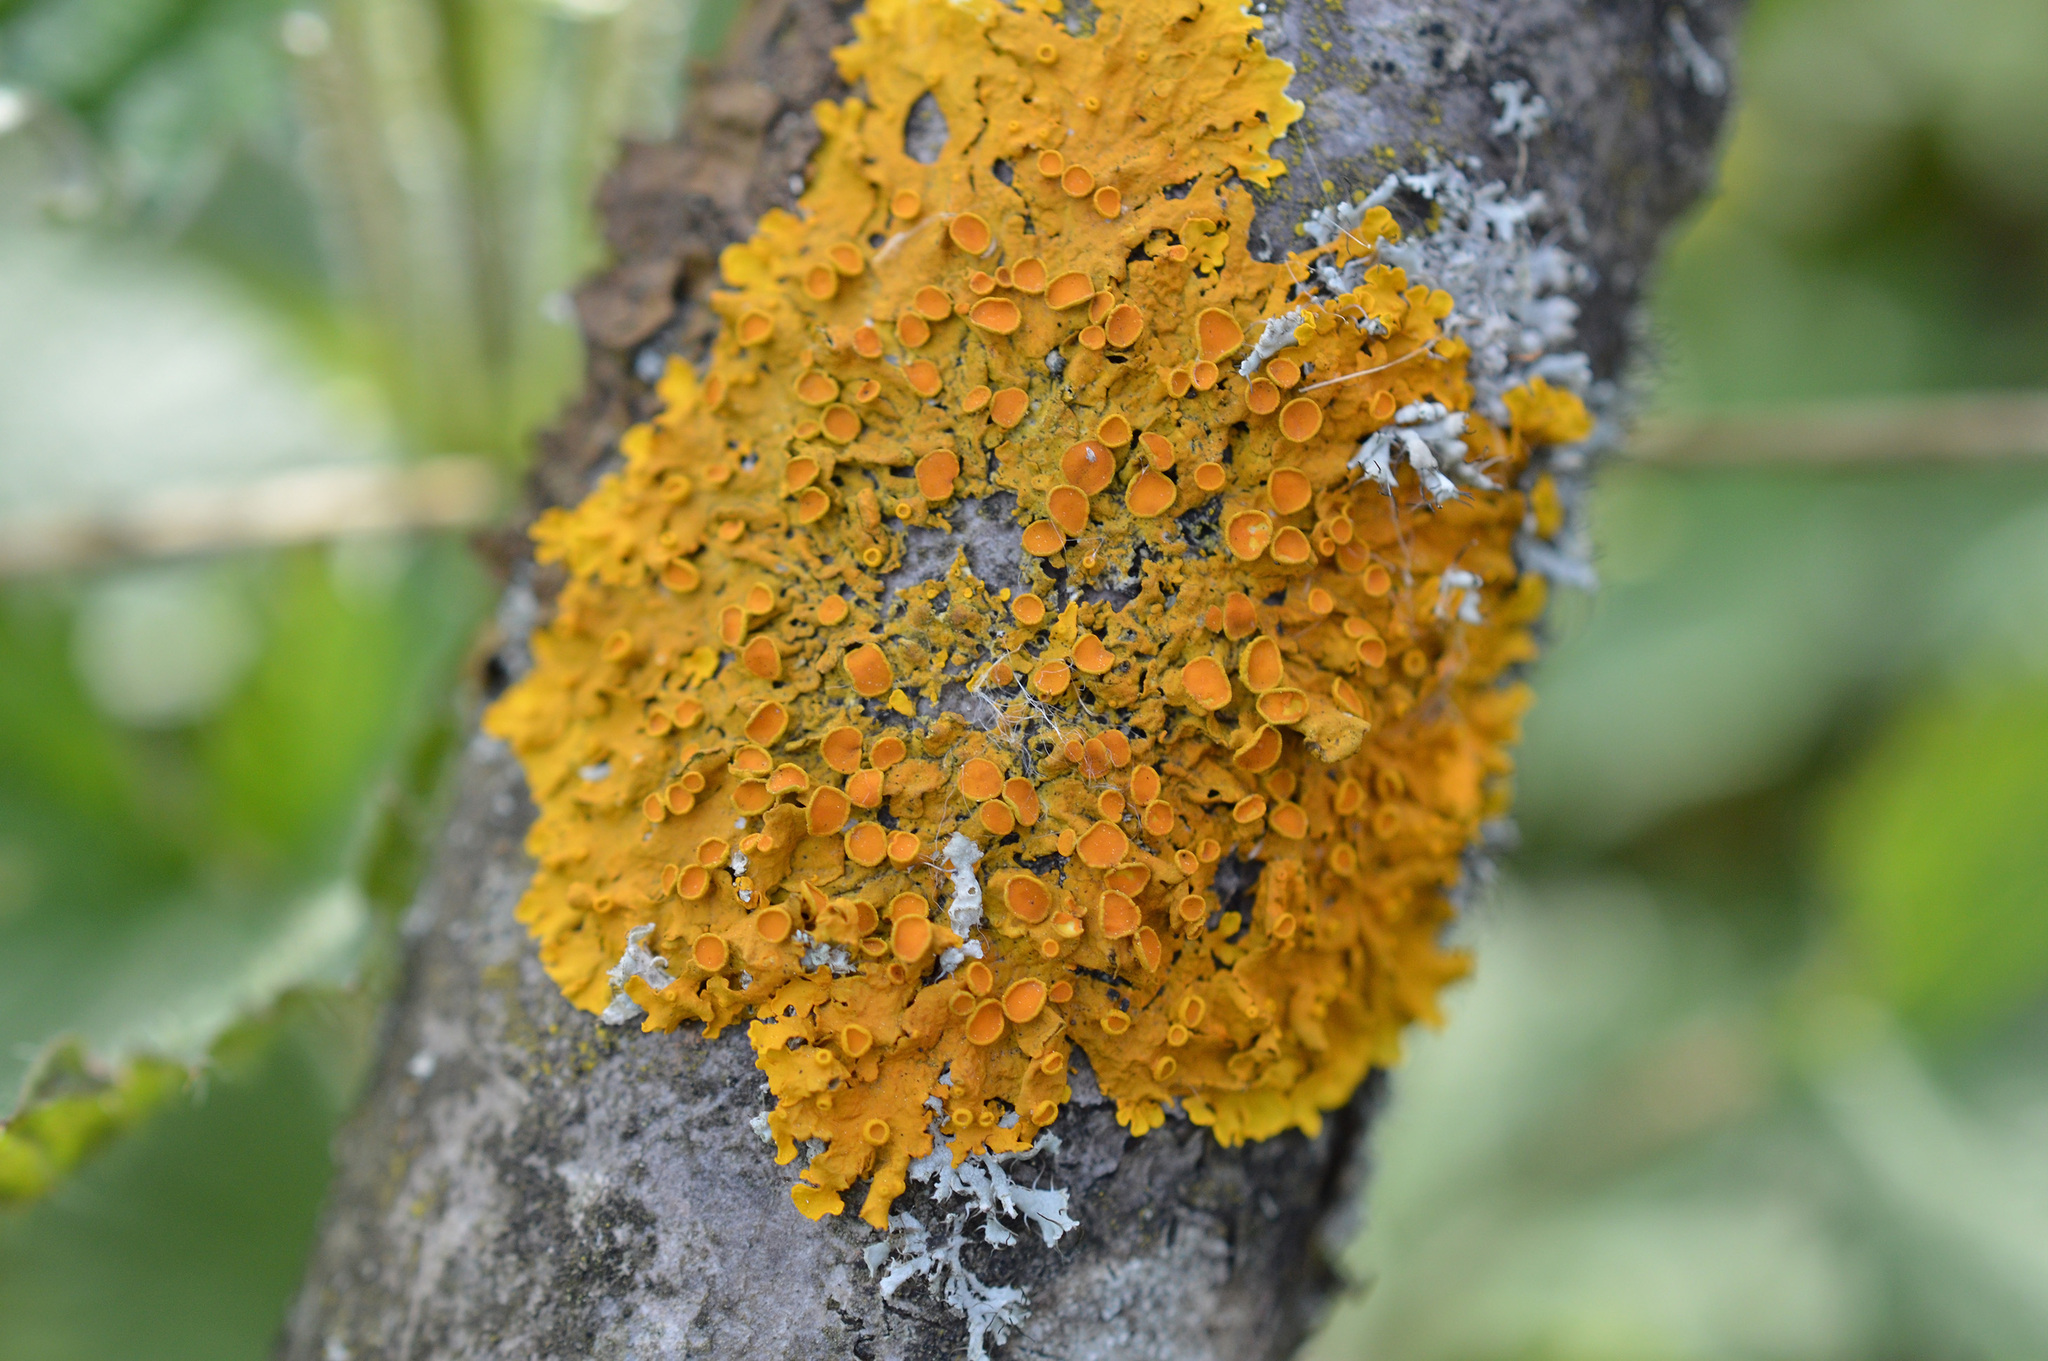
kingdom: Fungi
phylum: Ascomycota
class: Lecanoromycetes
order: Teloschistales
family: Teloschistaceae
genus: Xanthoria
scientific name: Xanthoria parietina
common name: Common orange lichen
